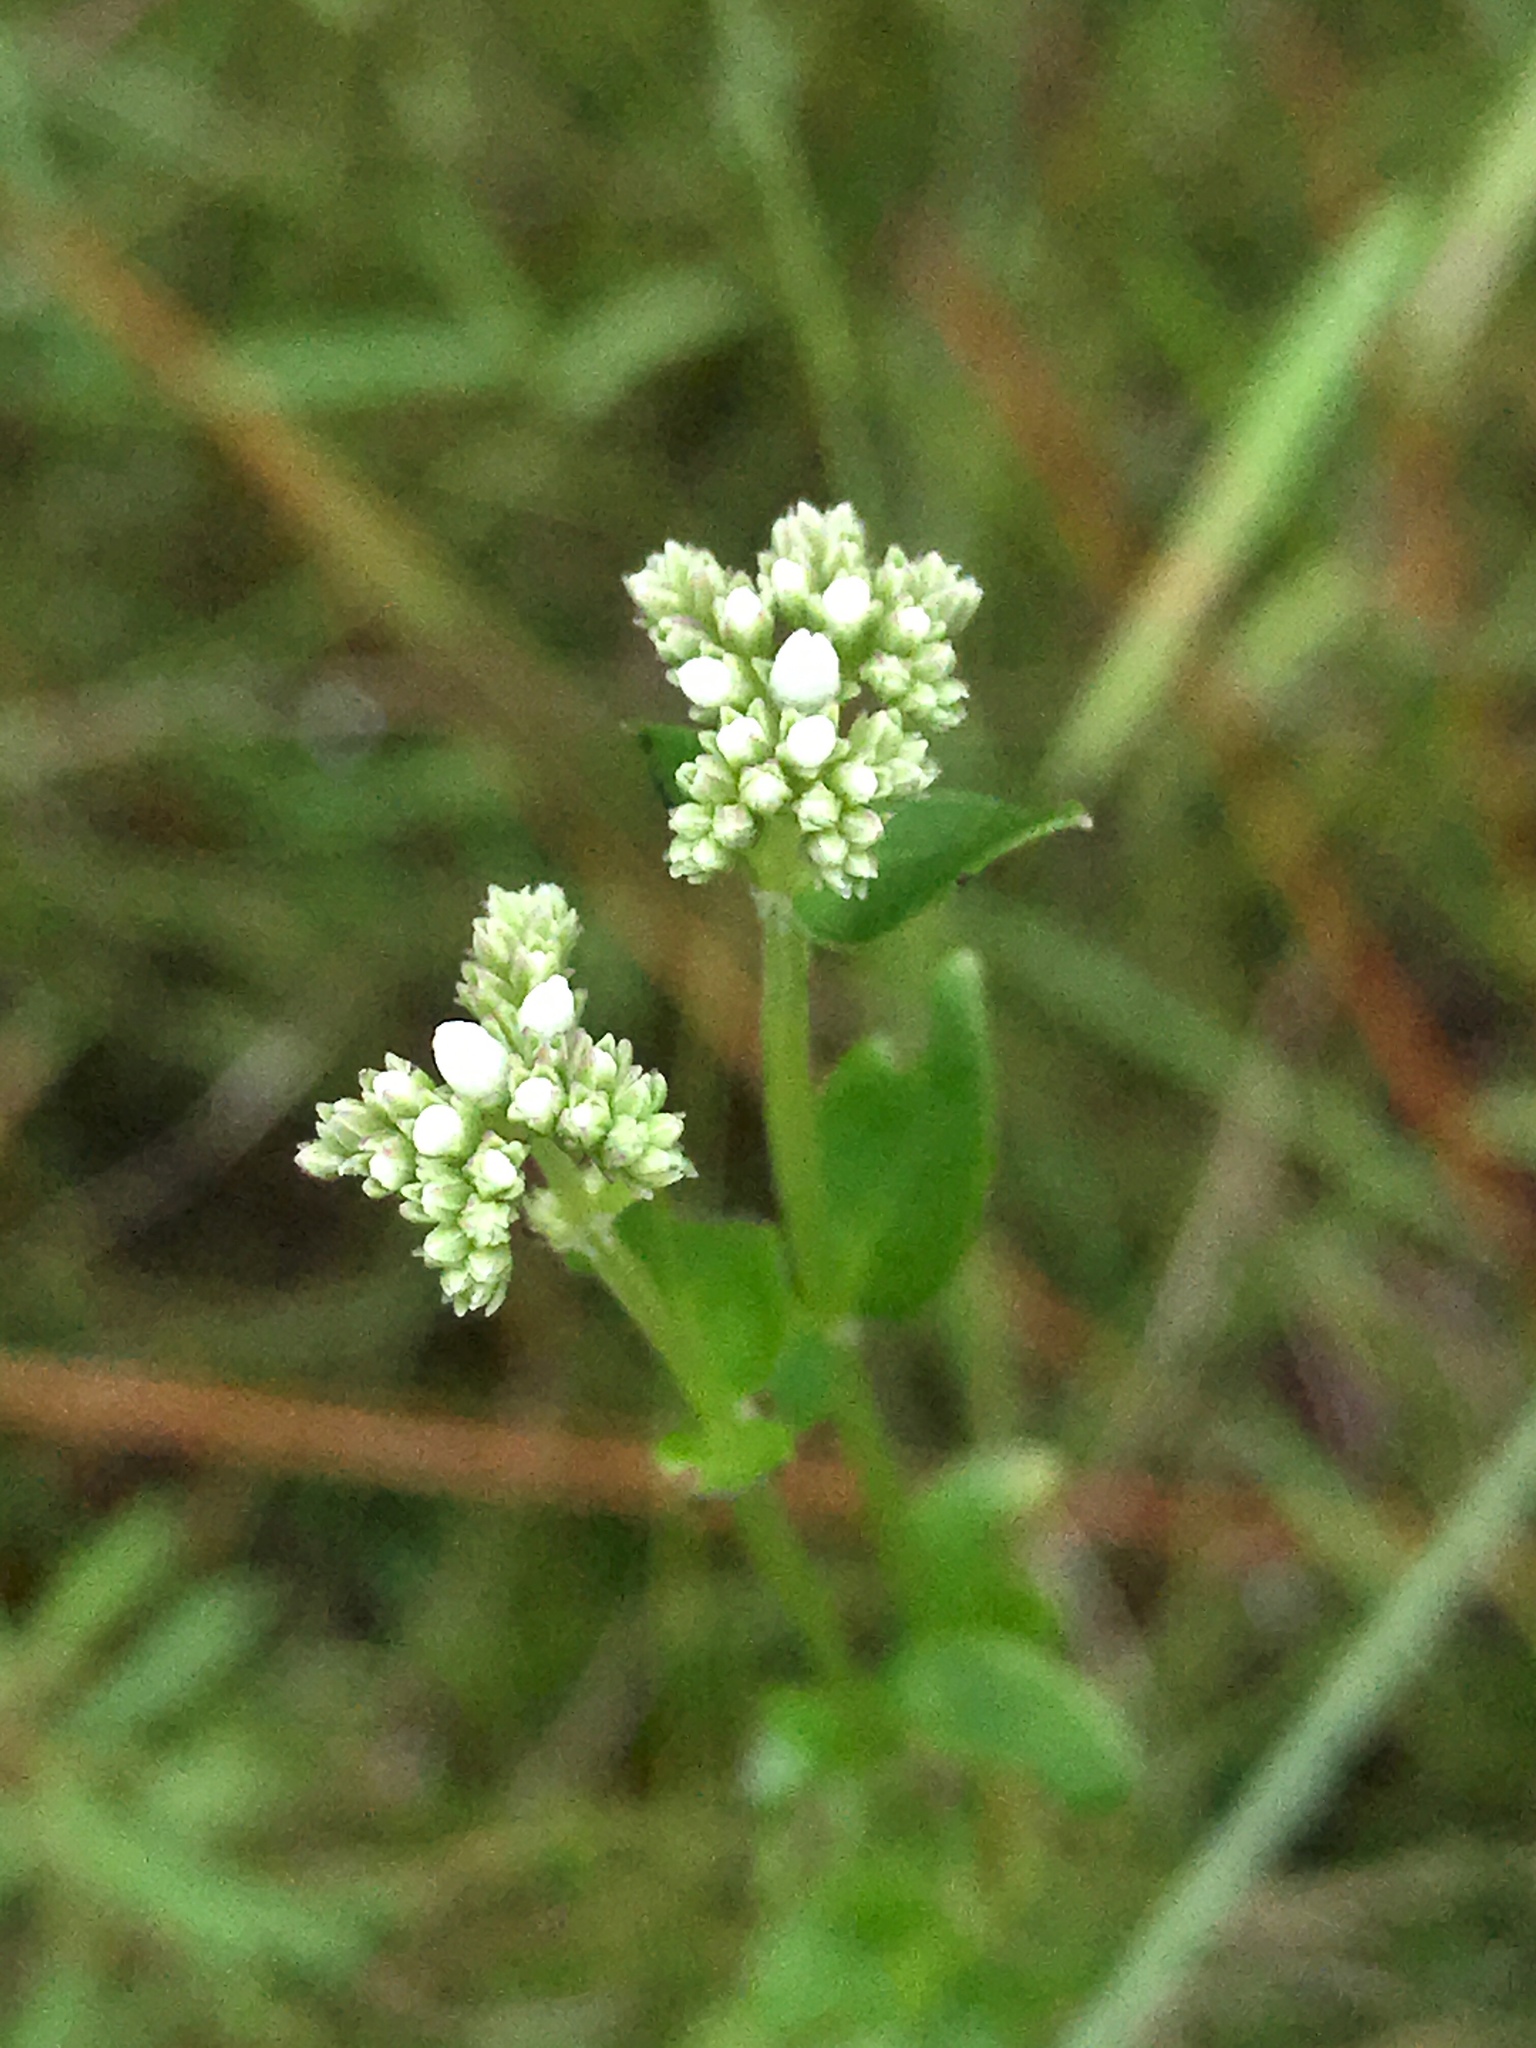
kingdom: Plantae
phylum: Tracheophyta
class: Magnoliopsida
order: Gentianales
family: Loganiaceae
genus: Mitreola
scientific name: Mitreola sessilifolia
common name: Swamp hornpod
